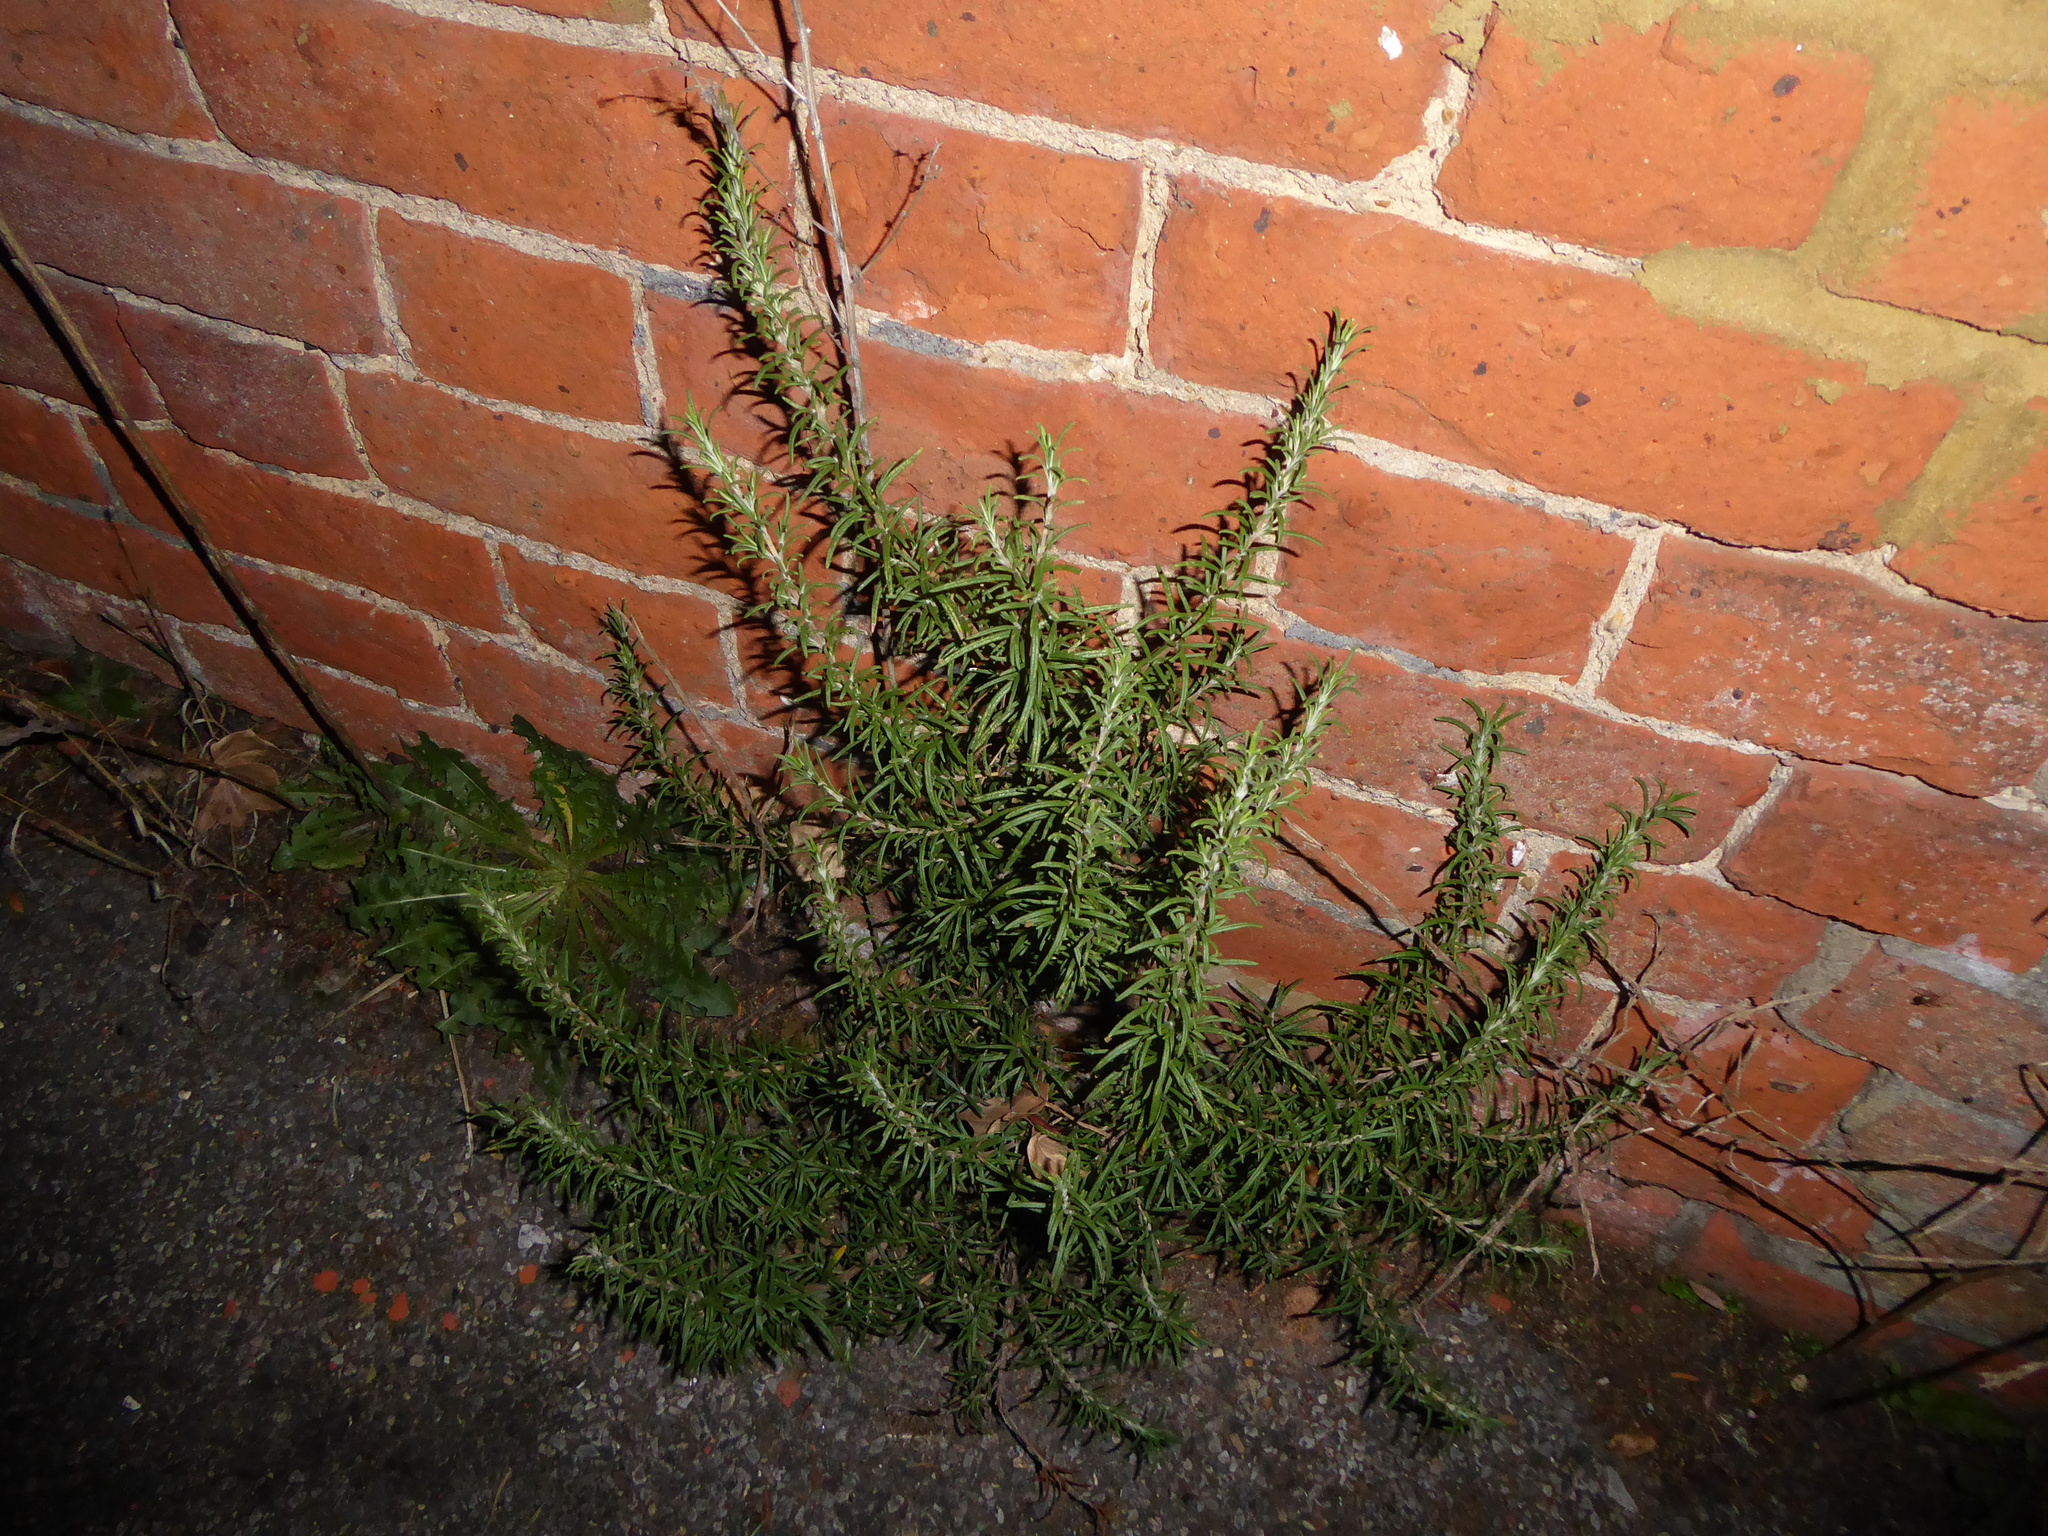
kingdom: Plantae
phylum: Tracheophyta
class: Magnoliopsida
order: Lamiales
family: Lamiaceae
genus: Salvia
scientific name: Salvia rosmarinus
